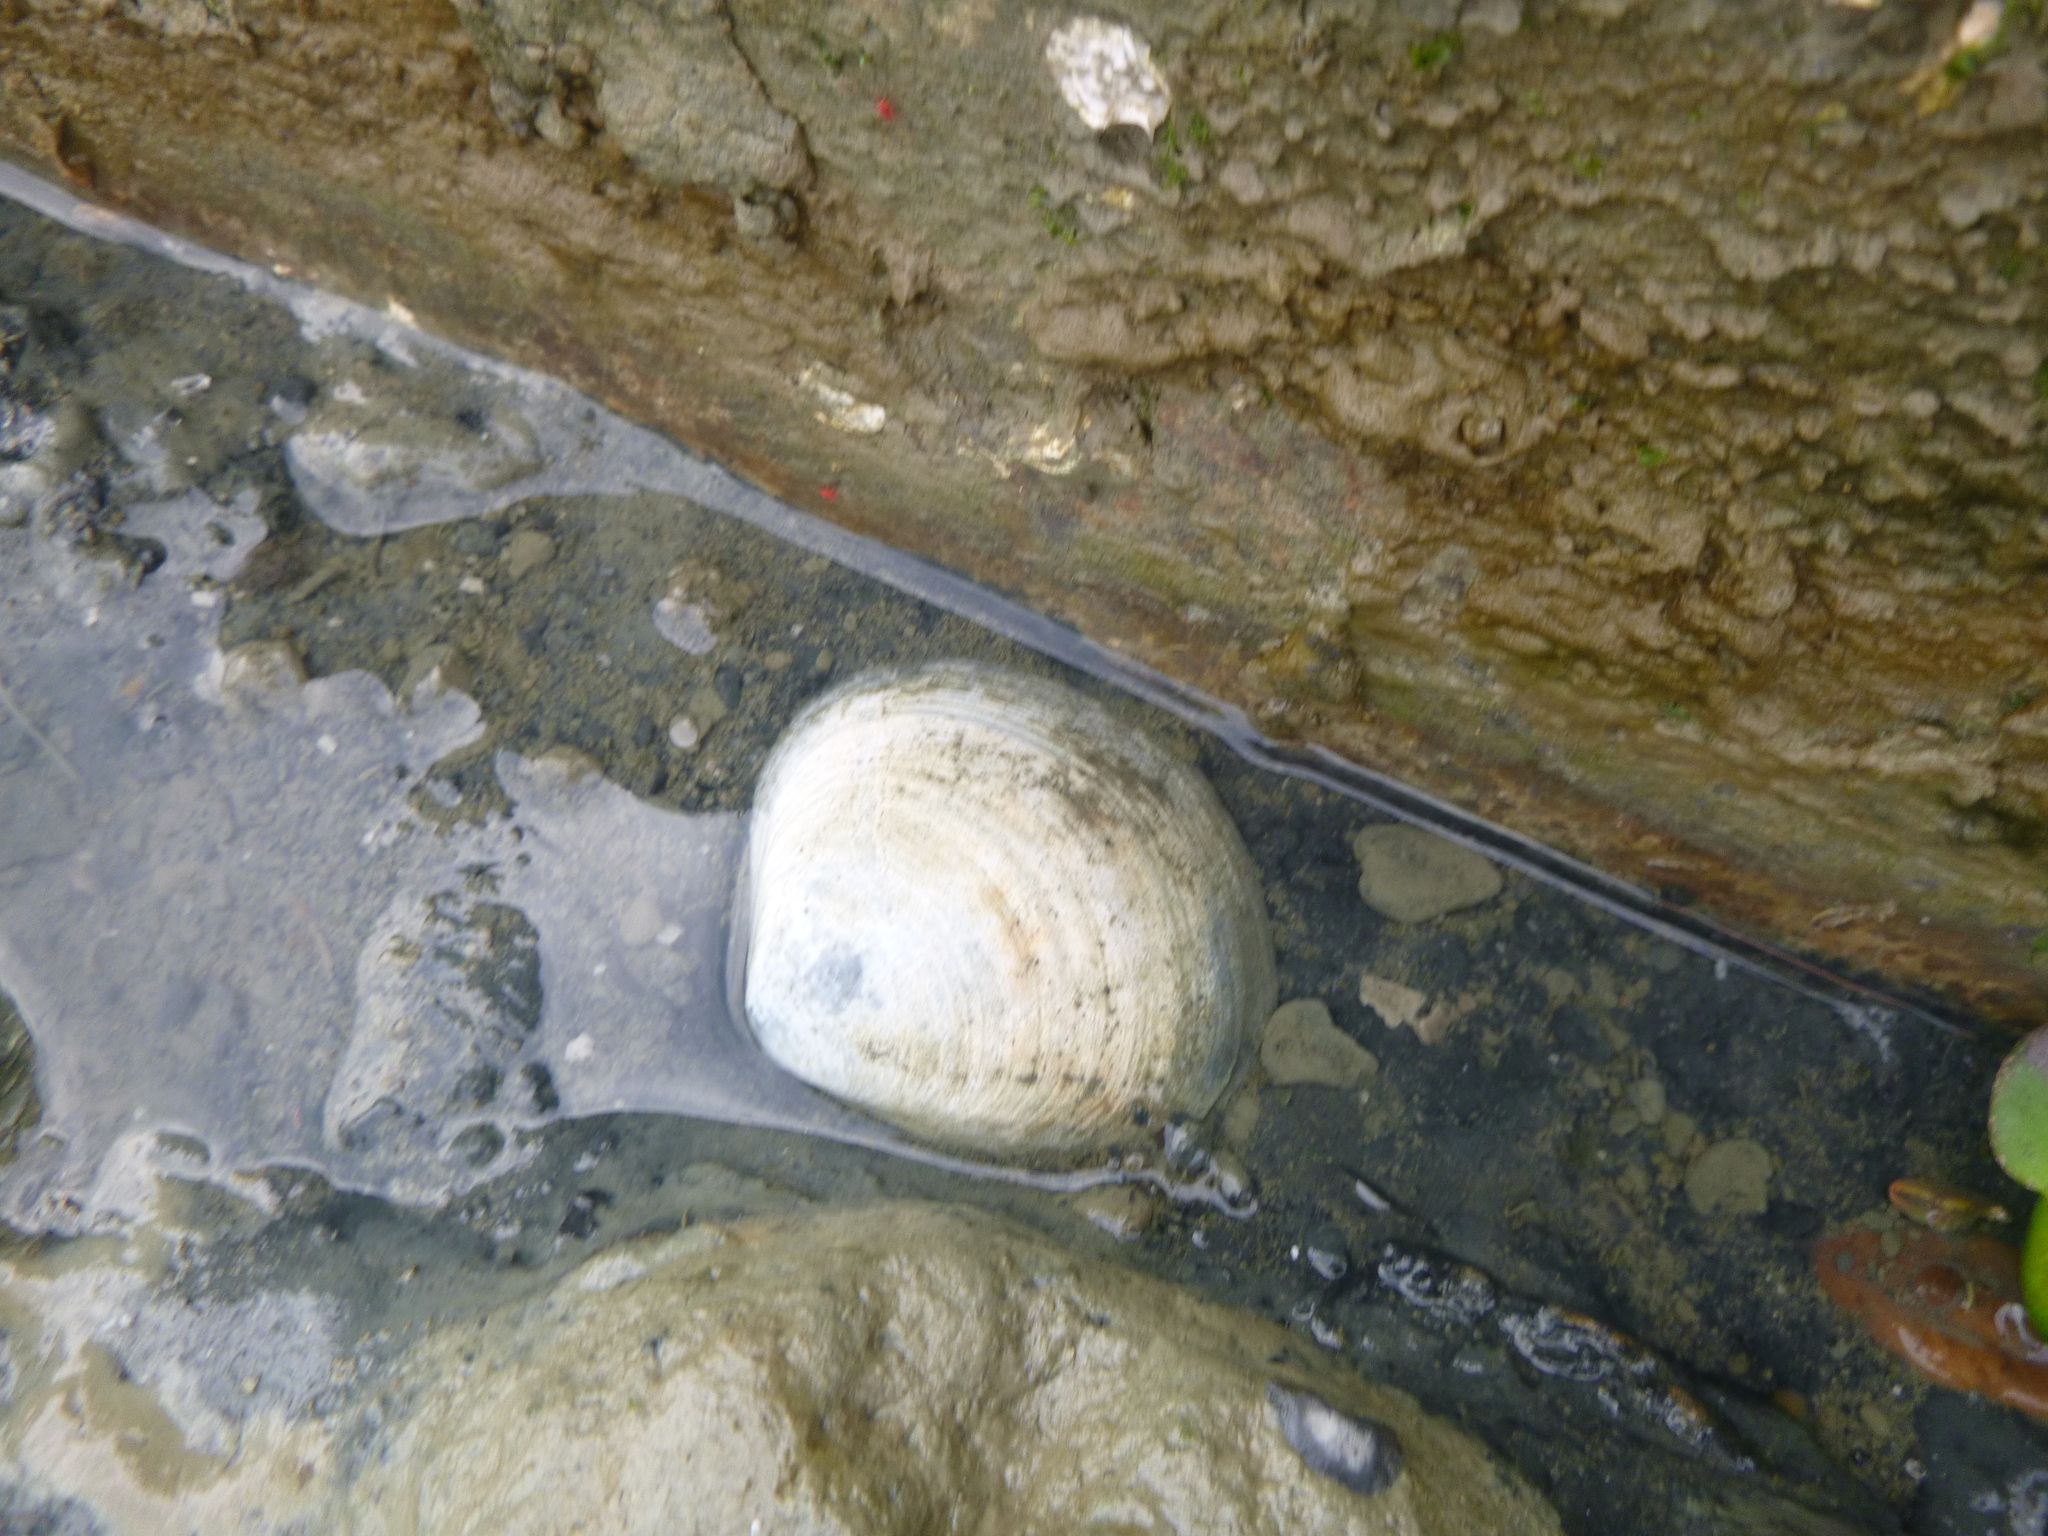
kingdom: Animalia
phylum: Mollusca
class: Bivalvia
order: Venerida
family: Veneridae
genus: Austrovenus
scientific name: Austrovenus stutchburyi
